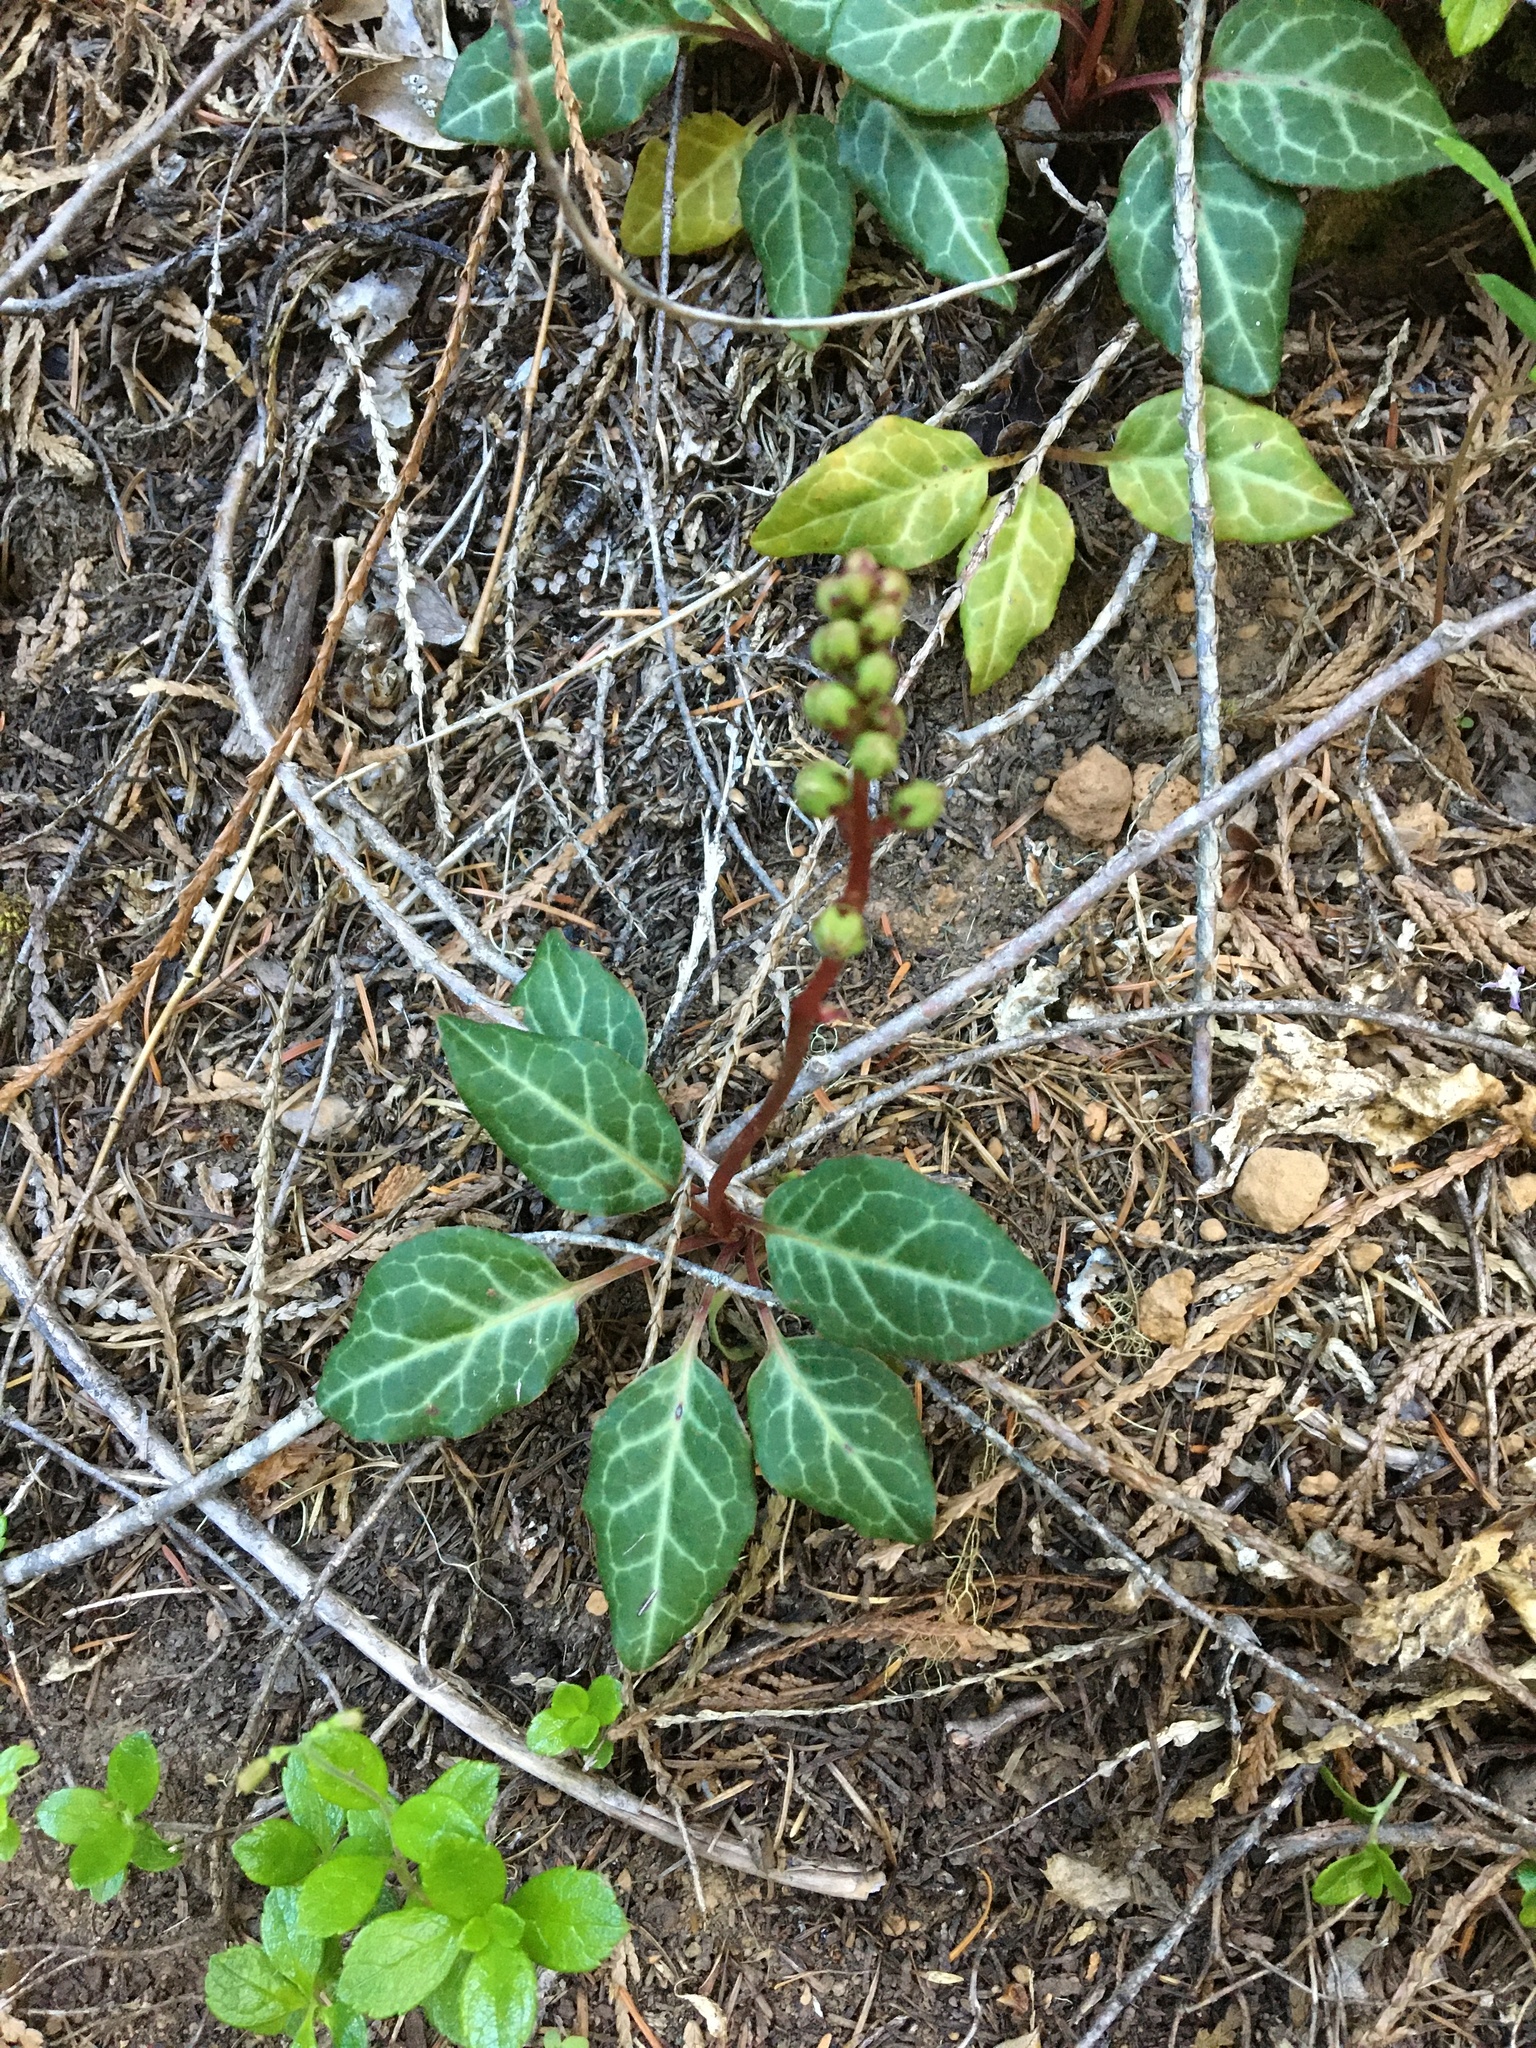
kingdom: Plantae
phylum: Tracheophyta
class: Magnoliopsida
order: Ericales
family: Ericaceae
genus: Pyrola
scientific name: Pyrola picta
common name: White-vein wintergreen
